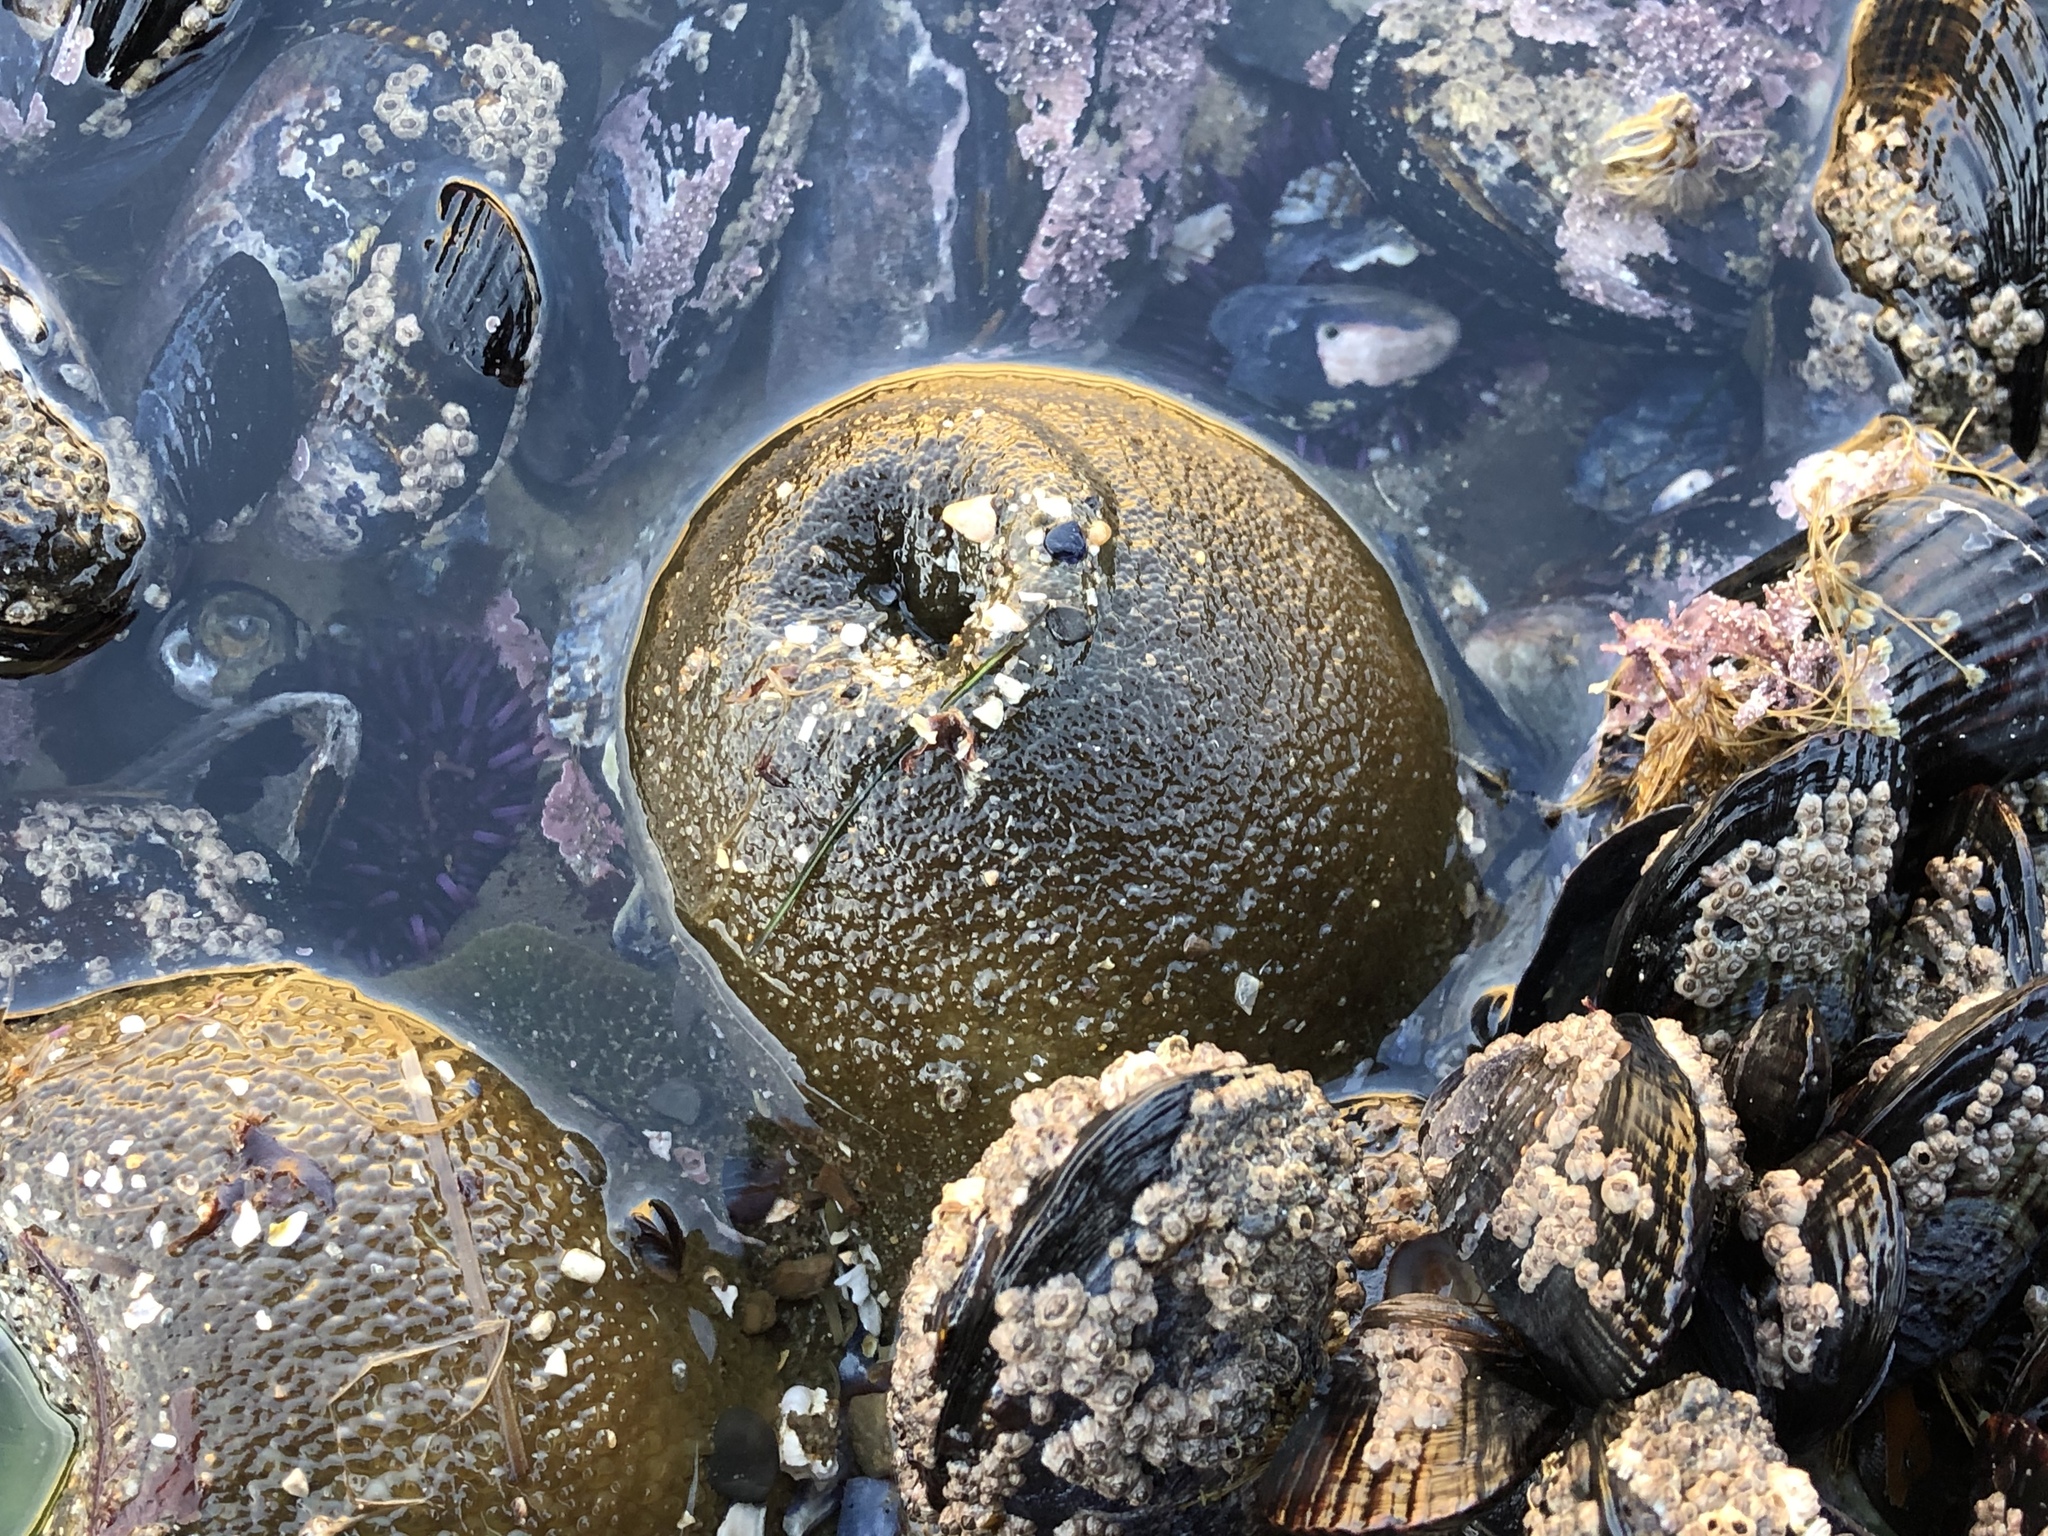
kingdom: Animalia
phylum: Cnidaria
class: Anthozoa
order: Actiniaria
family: Actiniidae
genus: Anthopleura
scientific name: Anthopleura xanthogrammica
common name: Giant green anemone
